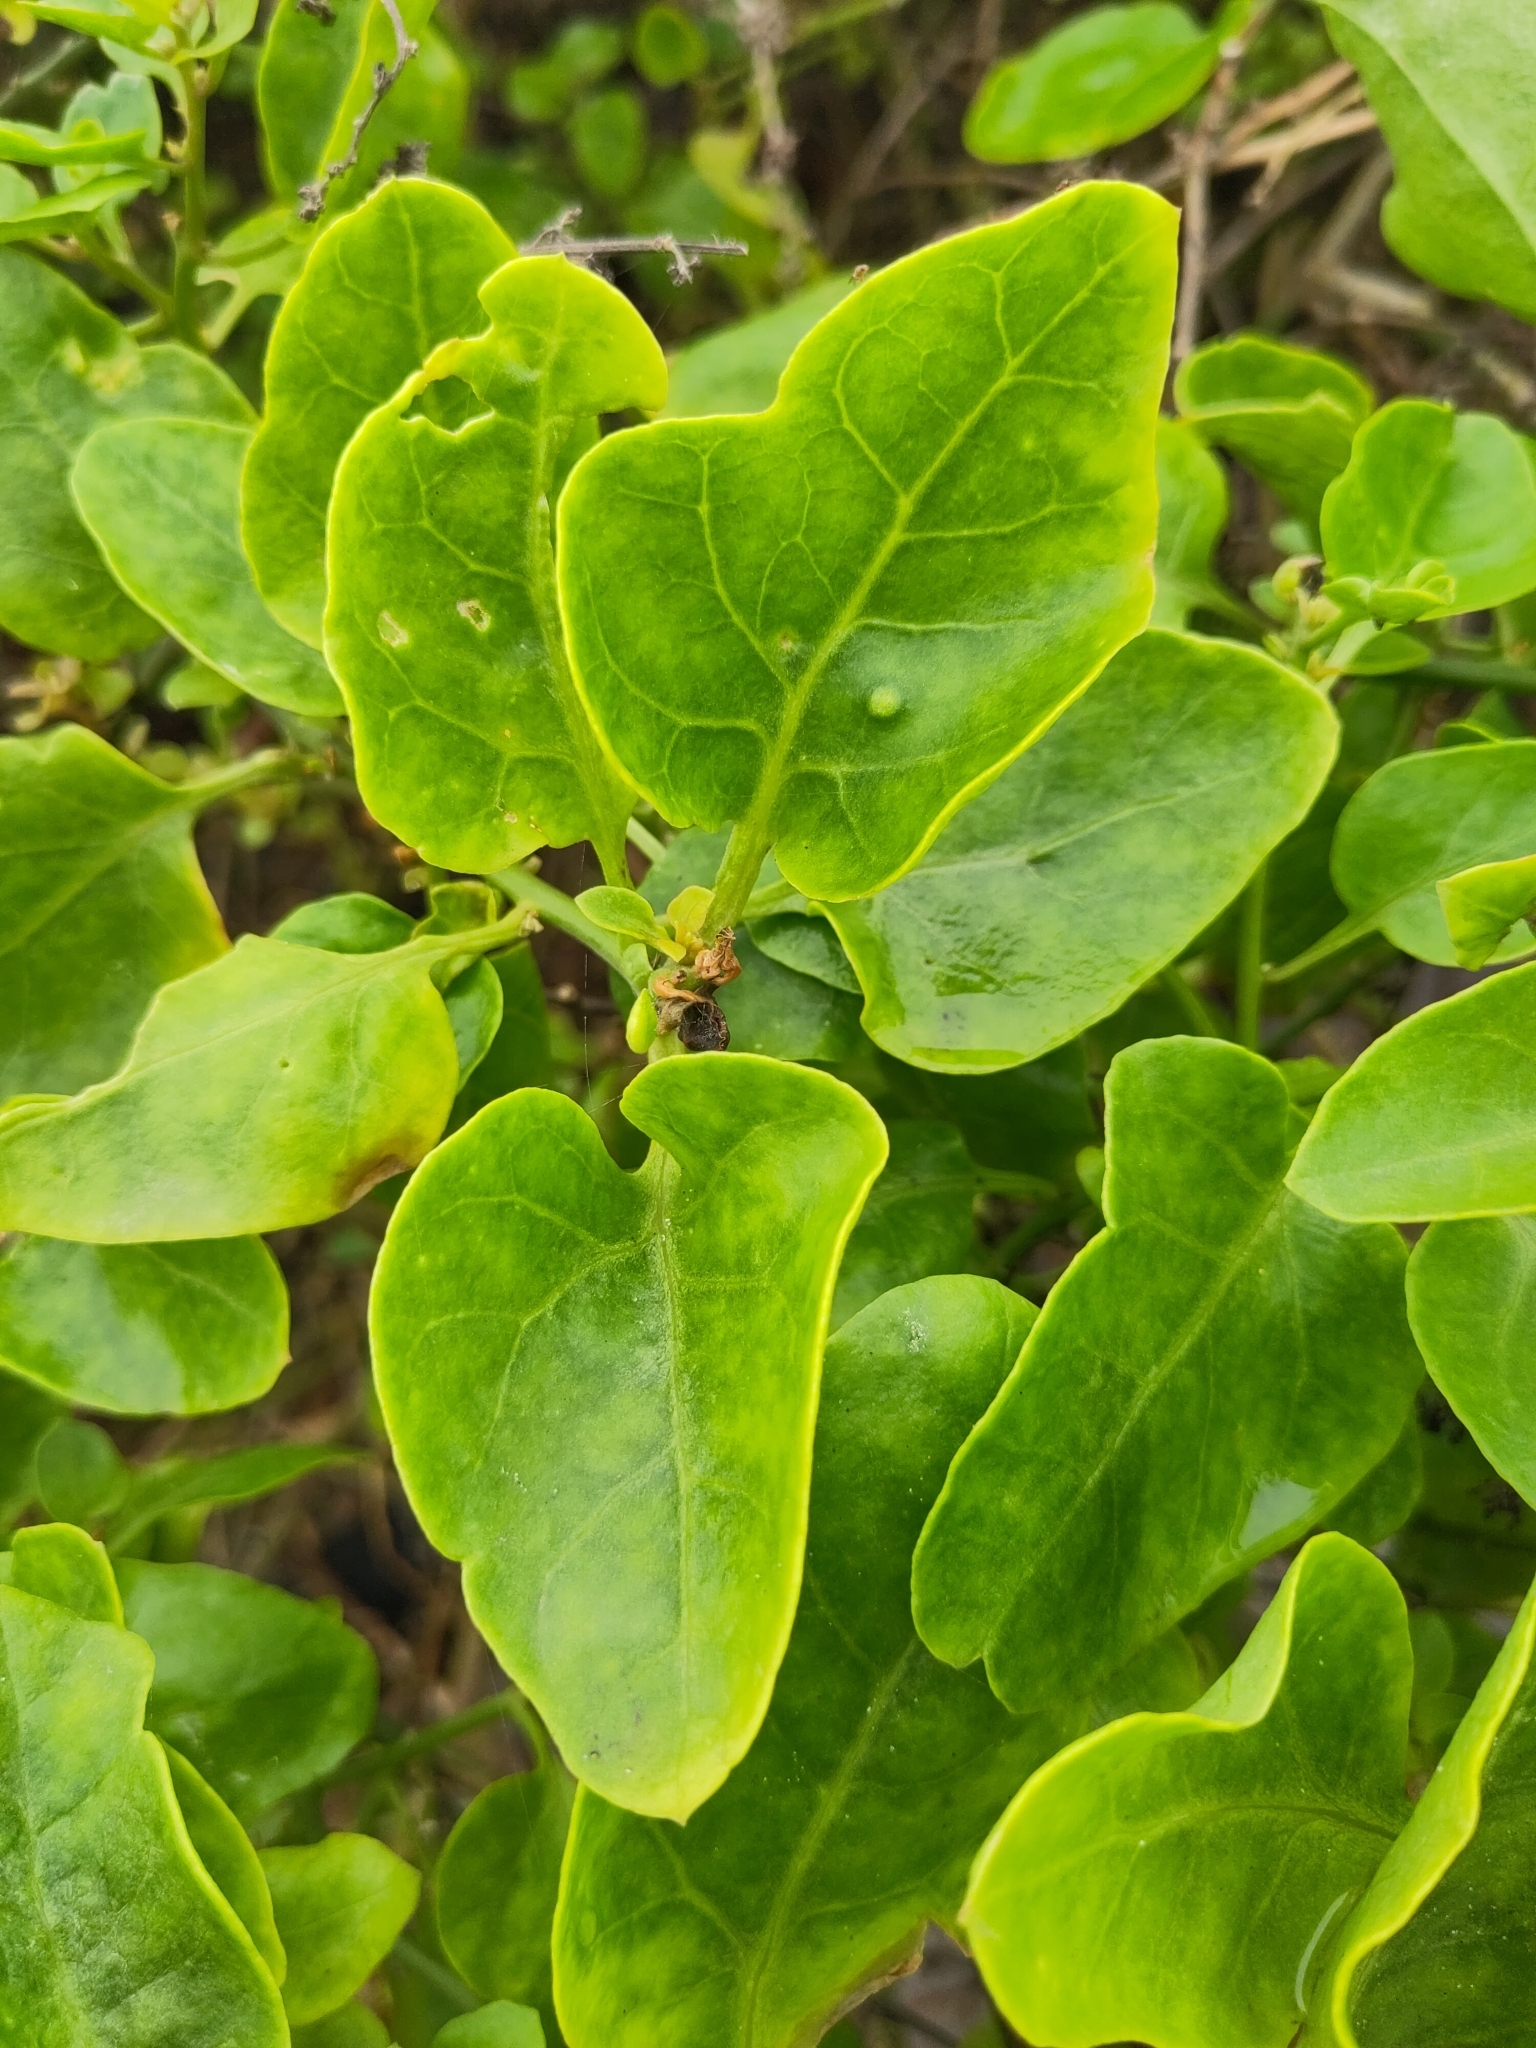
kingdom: Plantae
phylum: Tracheophyta
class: Magnoliopsida
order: Caryophyllales
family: Nyctaginaceae
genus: Cryptocarpus
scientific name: Cryptocarpus pyriformis
